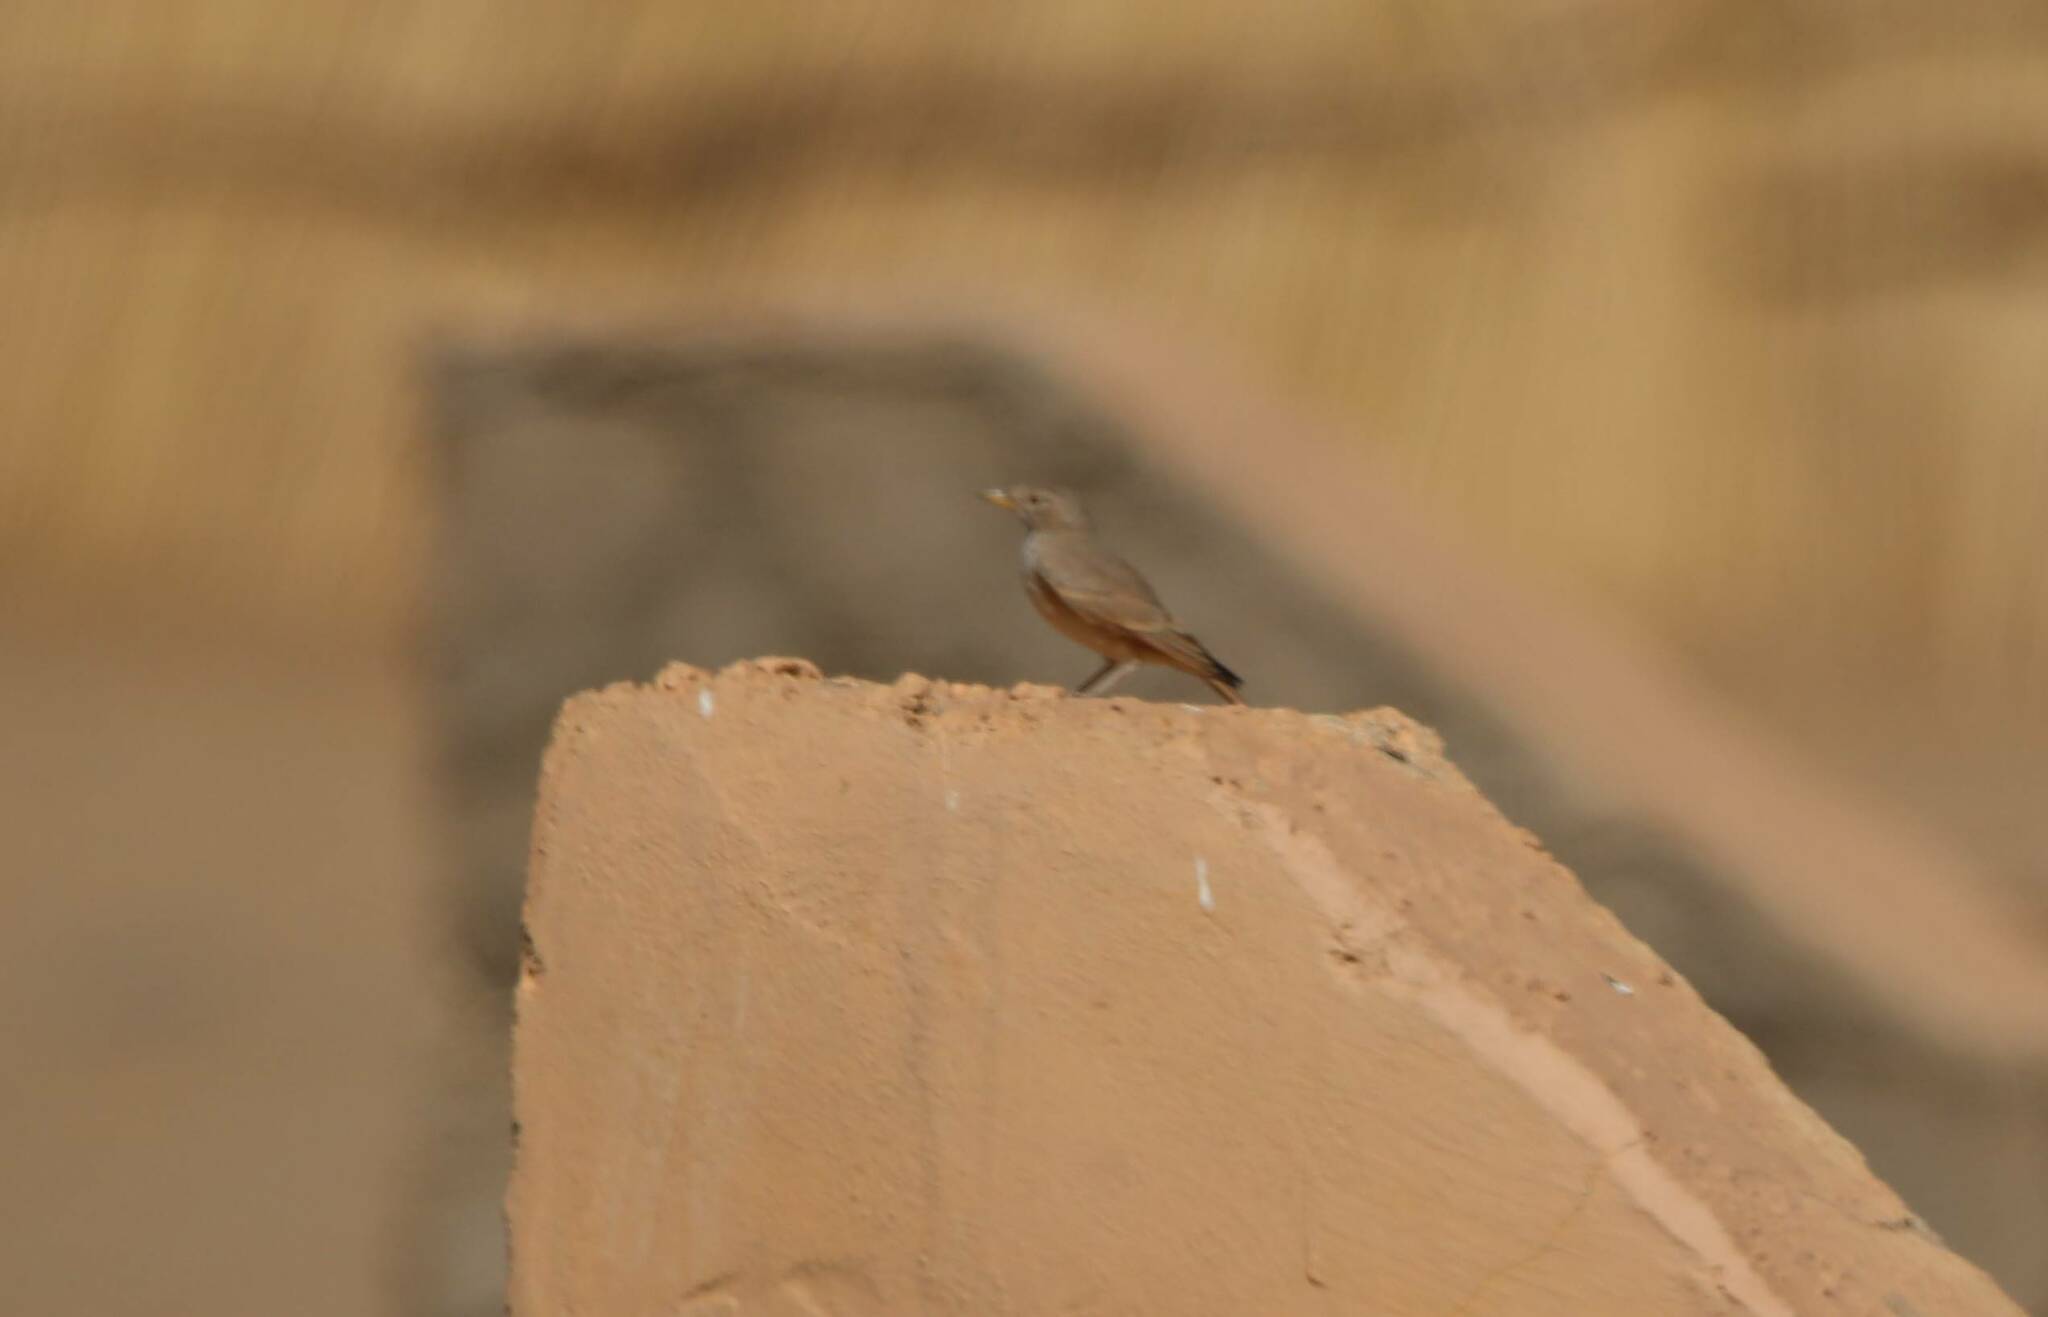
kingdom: Animalia
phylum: Chordata
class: Aves
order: Passeriformes
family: Alaudidae
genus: Ammomanes
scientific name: Ammomanes deserti
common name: Desert lark
